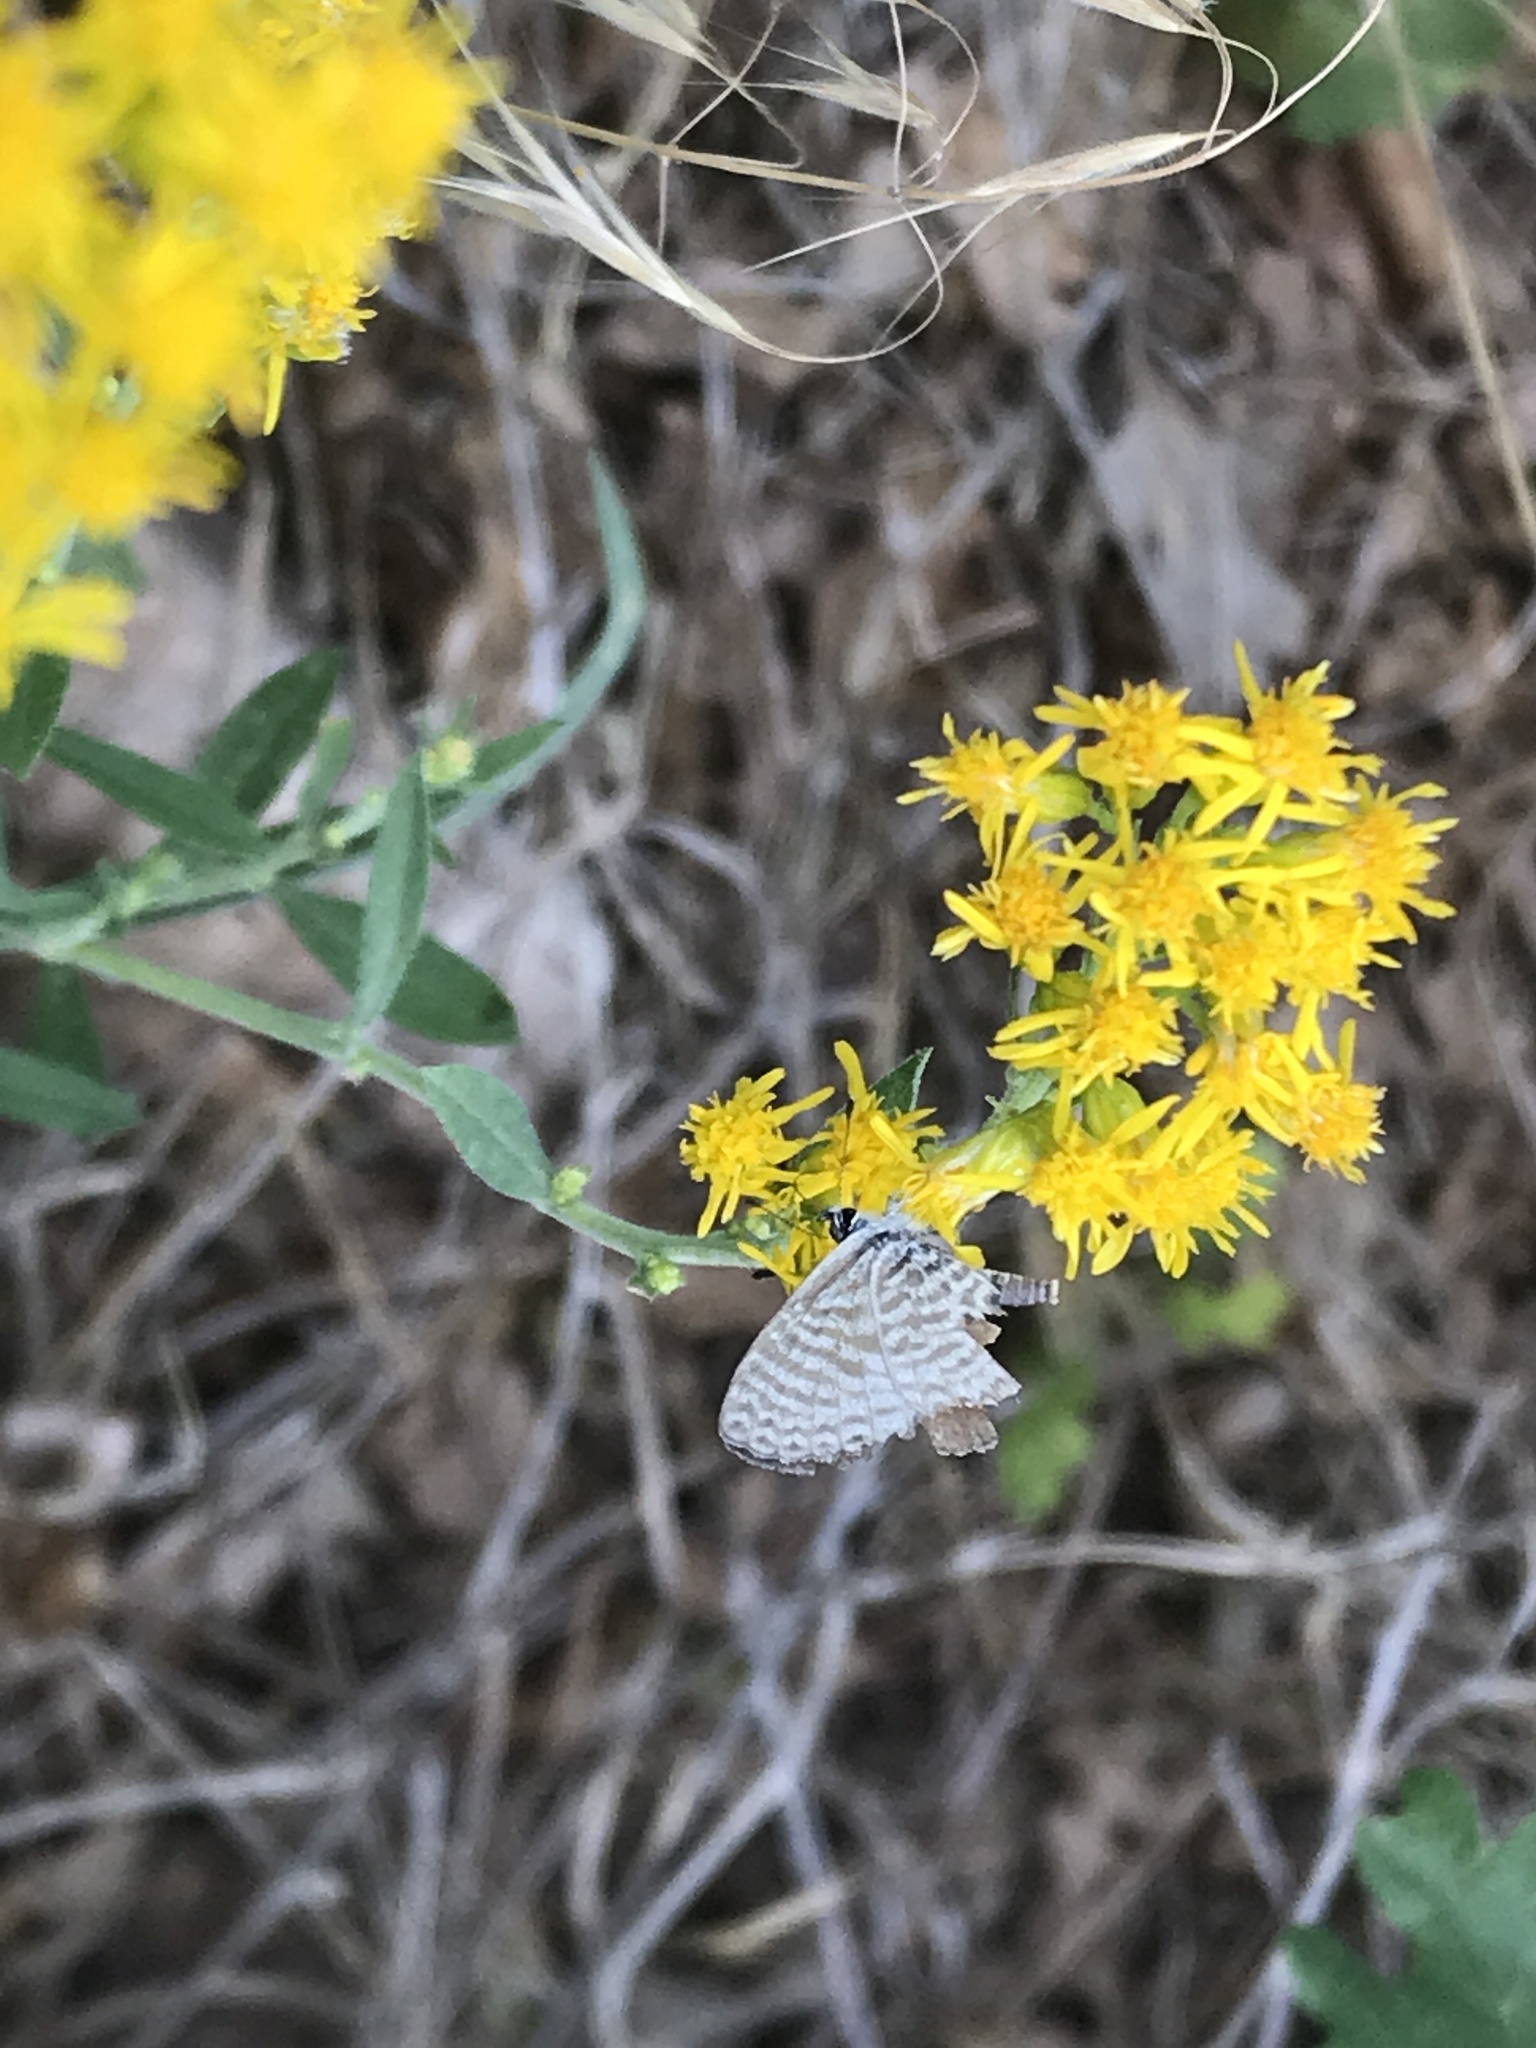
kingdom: Animalia
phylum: Arthropoda
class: Insecta
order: Lepidoptera
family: Lycaenidae
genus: Leptotes
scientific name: Leptotes marina
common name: Marine blue
